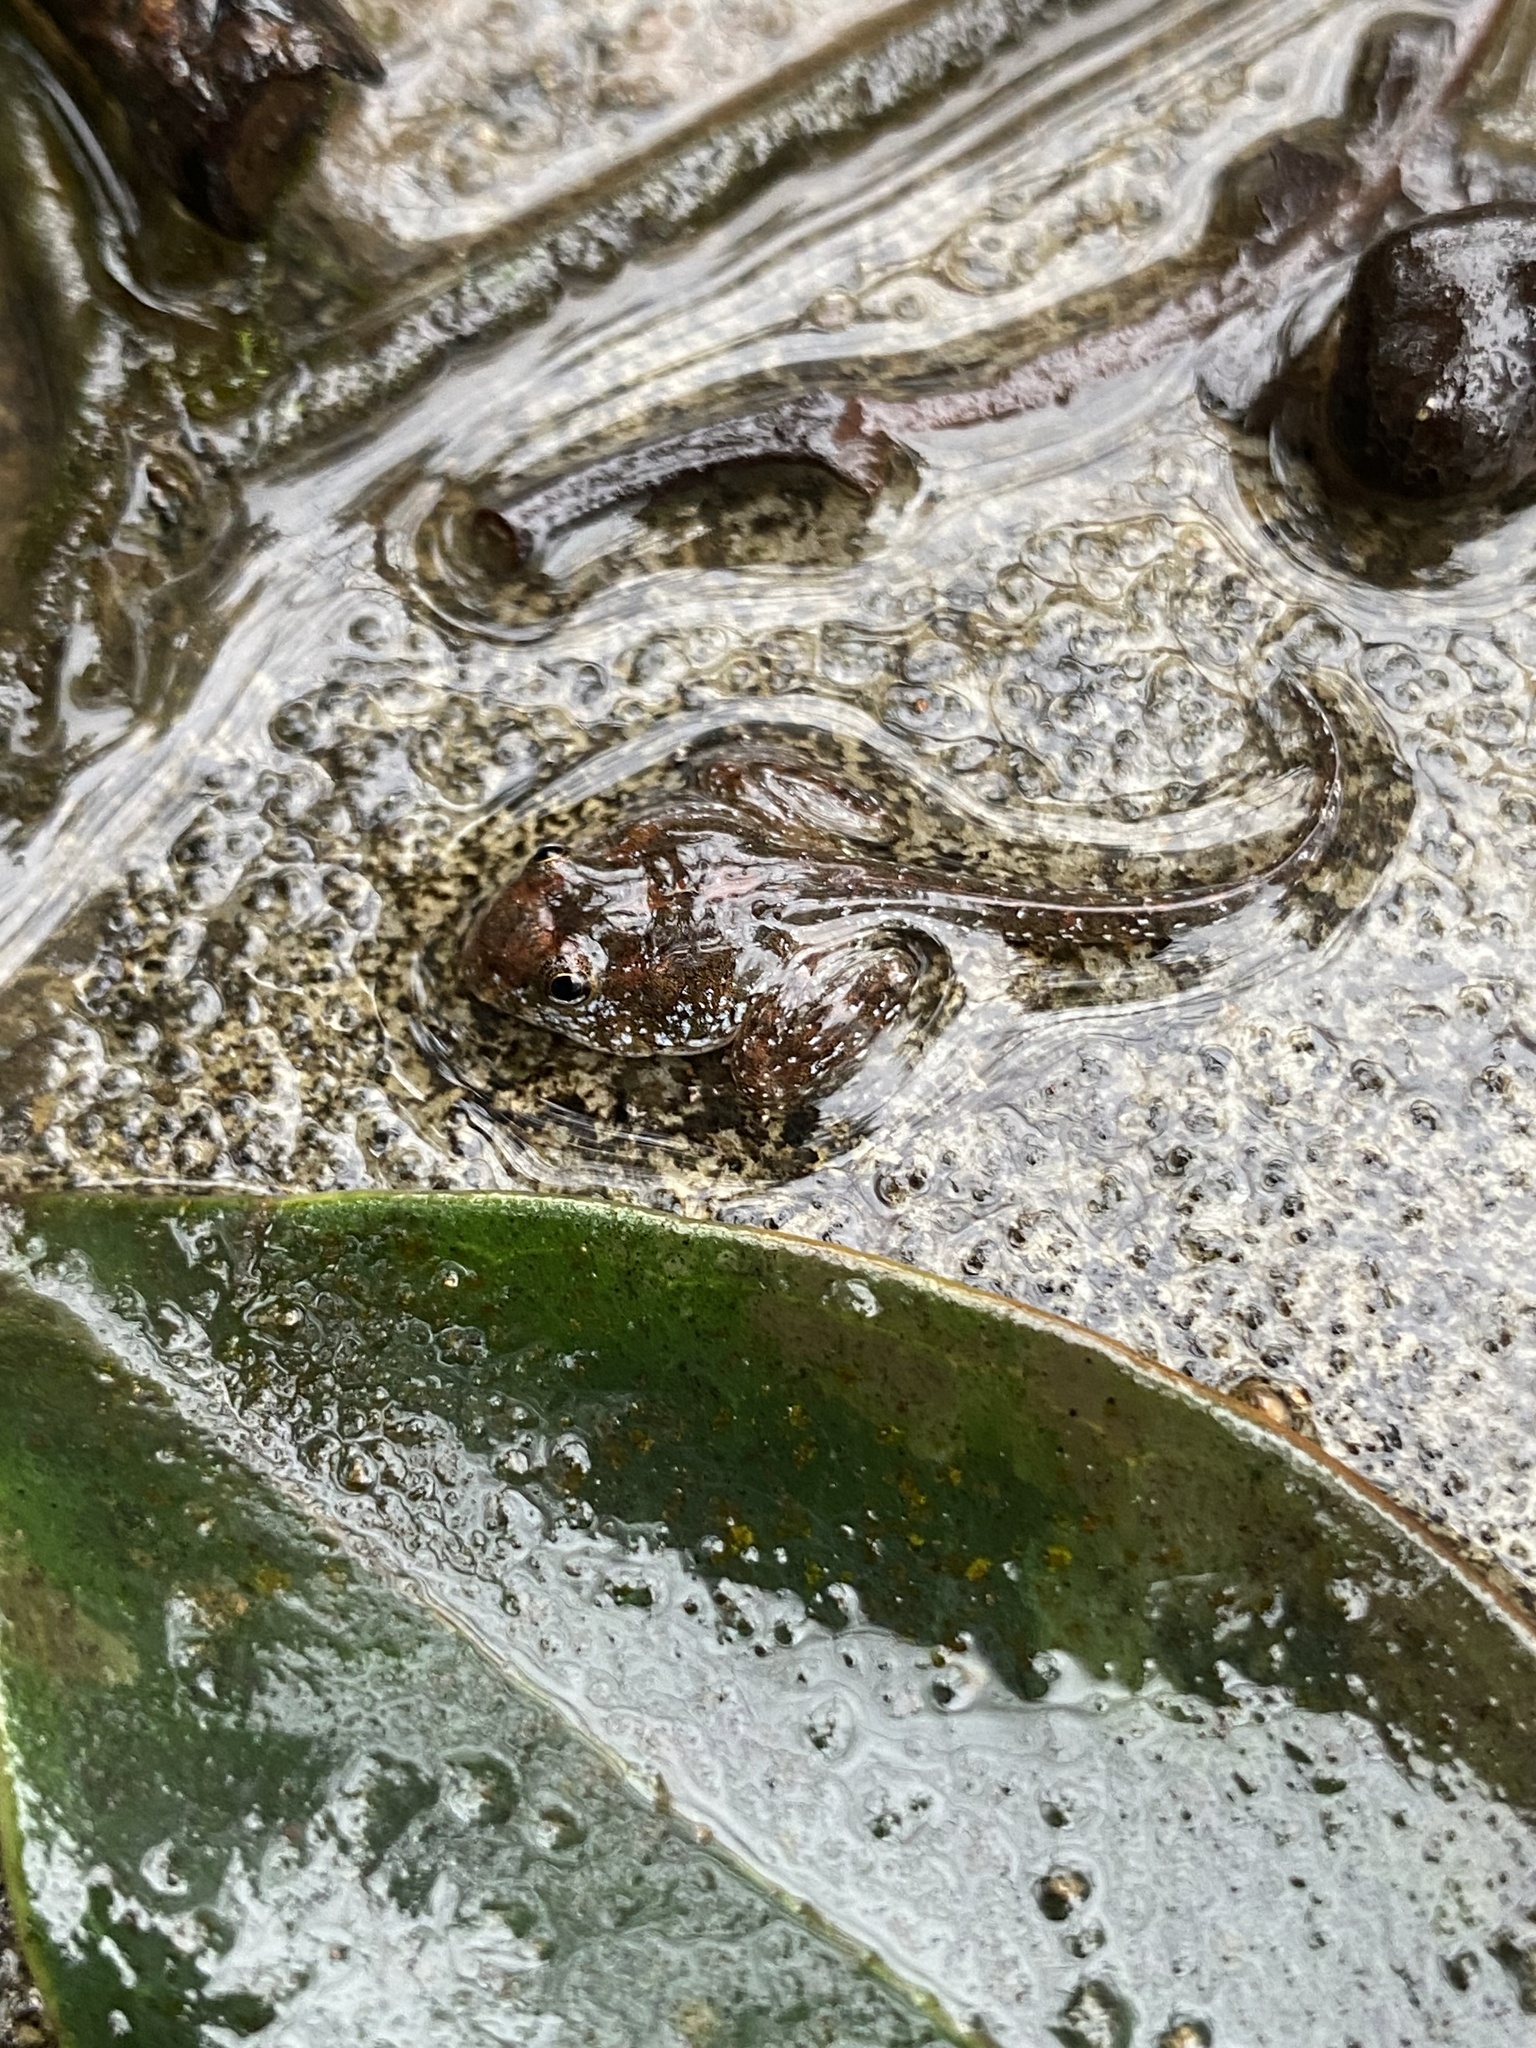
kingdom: Animalia
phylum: Chordata
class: Amphibia
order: Anura
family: Ranixalidae
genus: Indirana
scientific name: Indirana chiravasi
